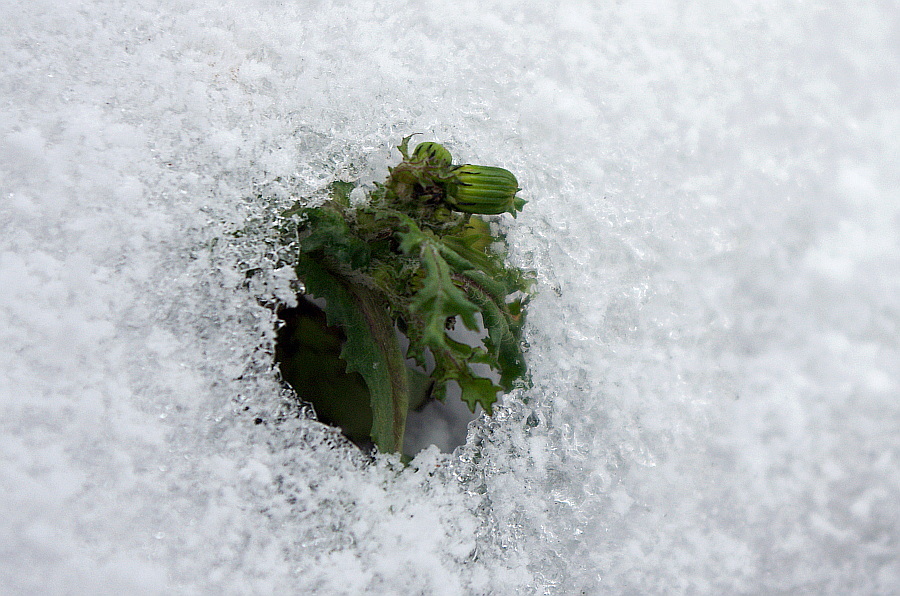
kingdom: Plantae
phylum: Tracheophyta
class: Magnoliopsida
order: Asterales
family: Asteraceae
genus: Senecio
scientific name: Senecio vulgaris
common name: Old-man-in-the-spring
